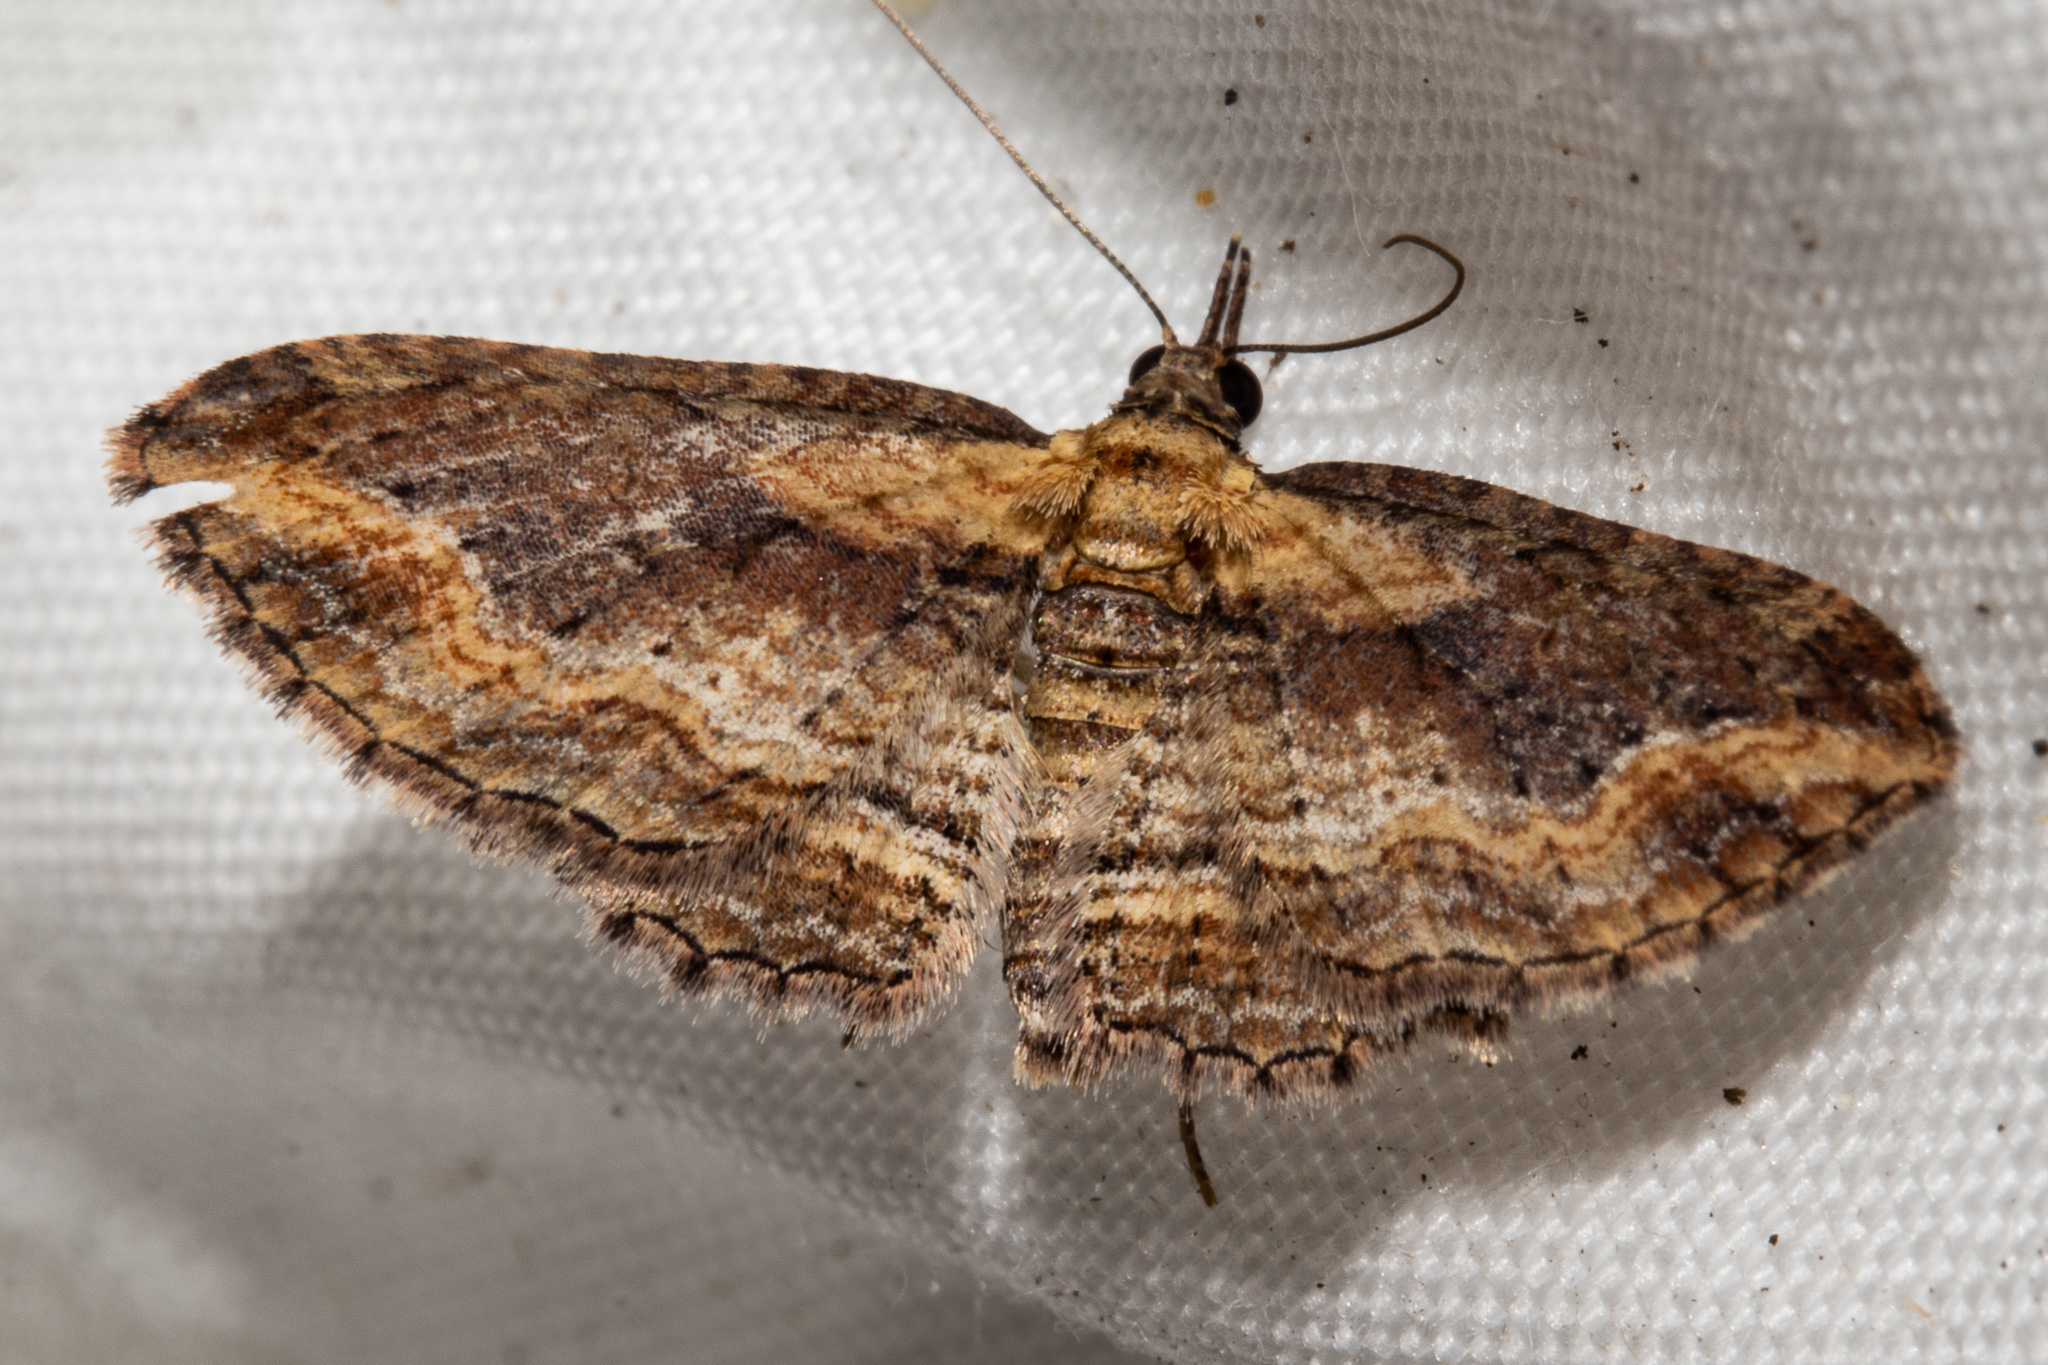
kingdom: Animalia
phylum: Arthropoda
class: Insecta
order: Lepidoptera
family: Geometridae
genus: Chloroclystis
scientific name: Chloroclystis filata
